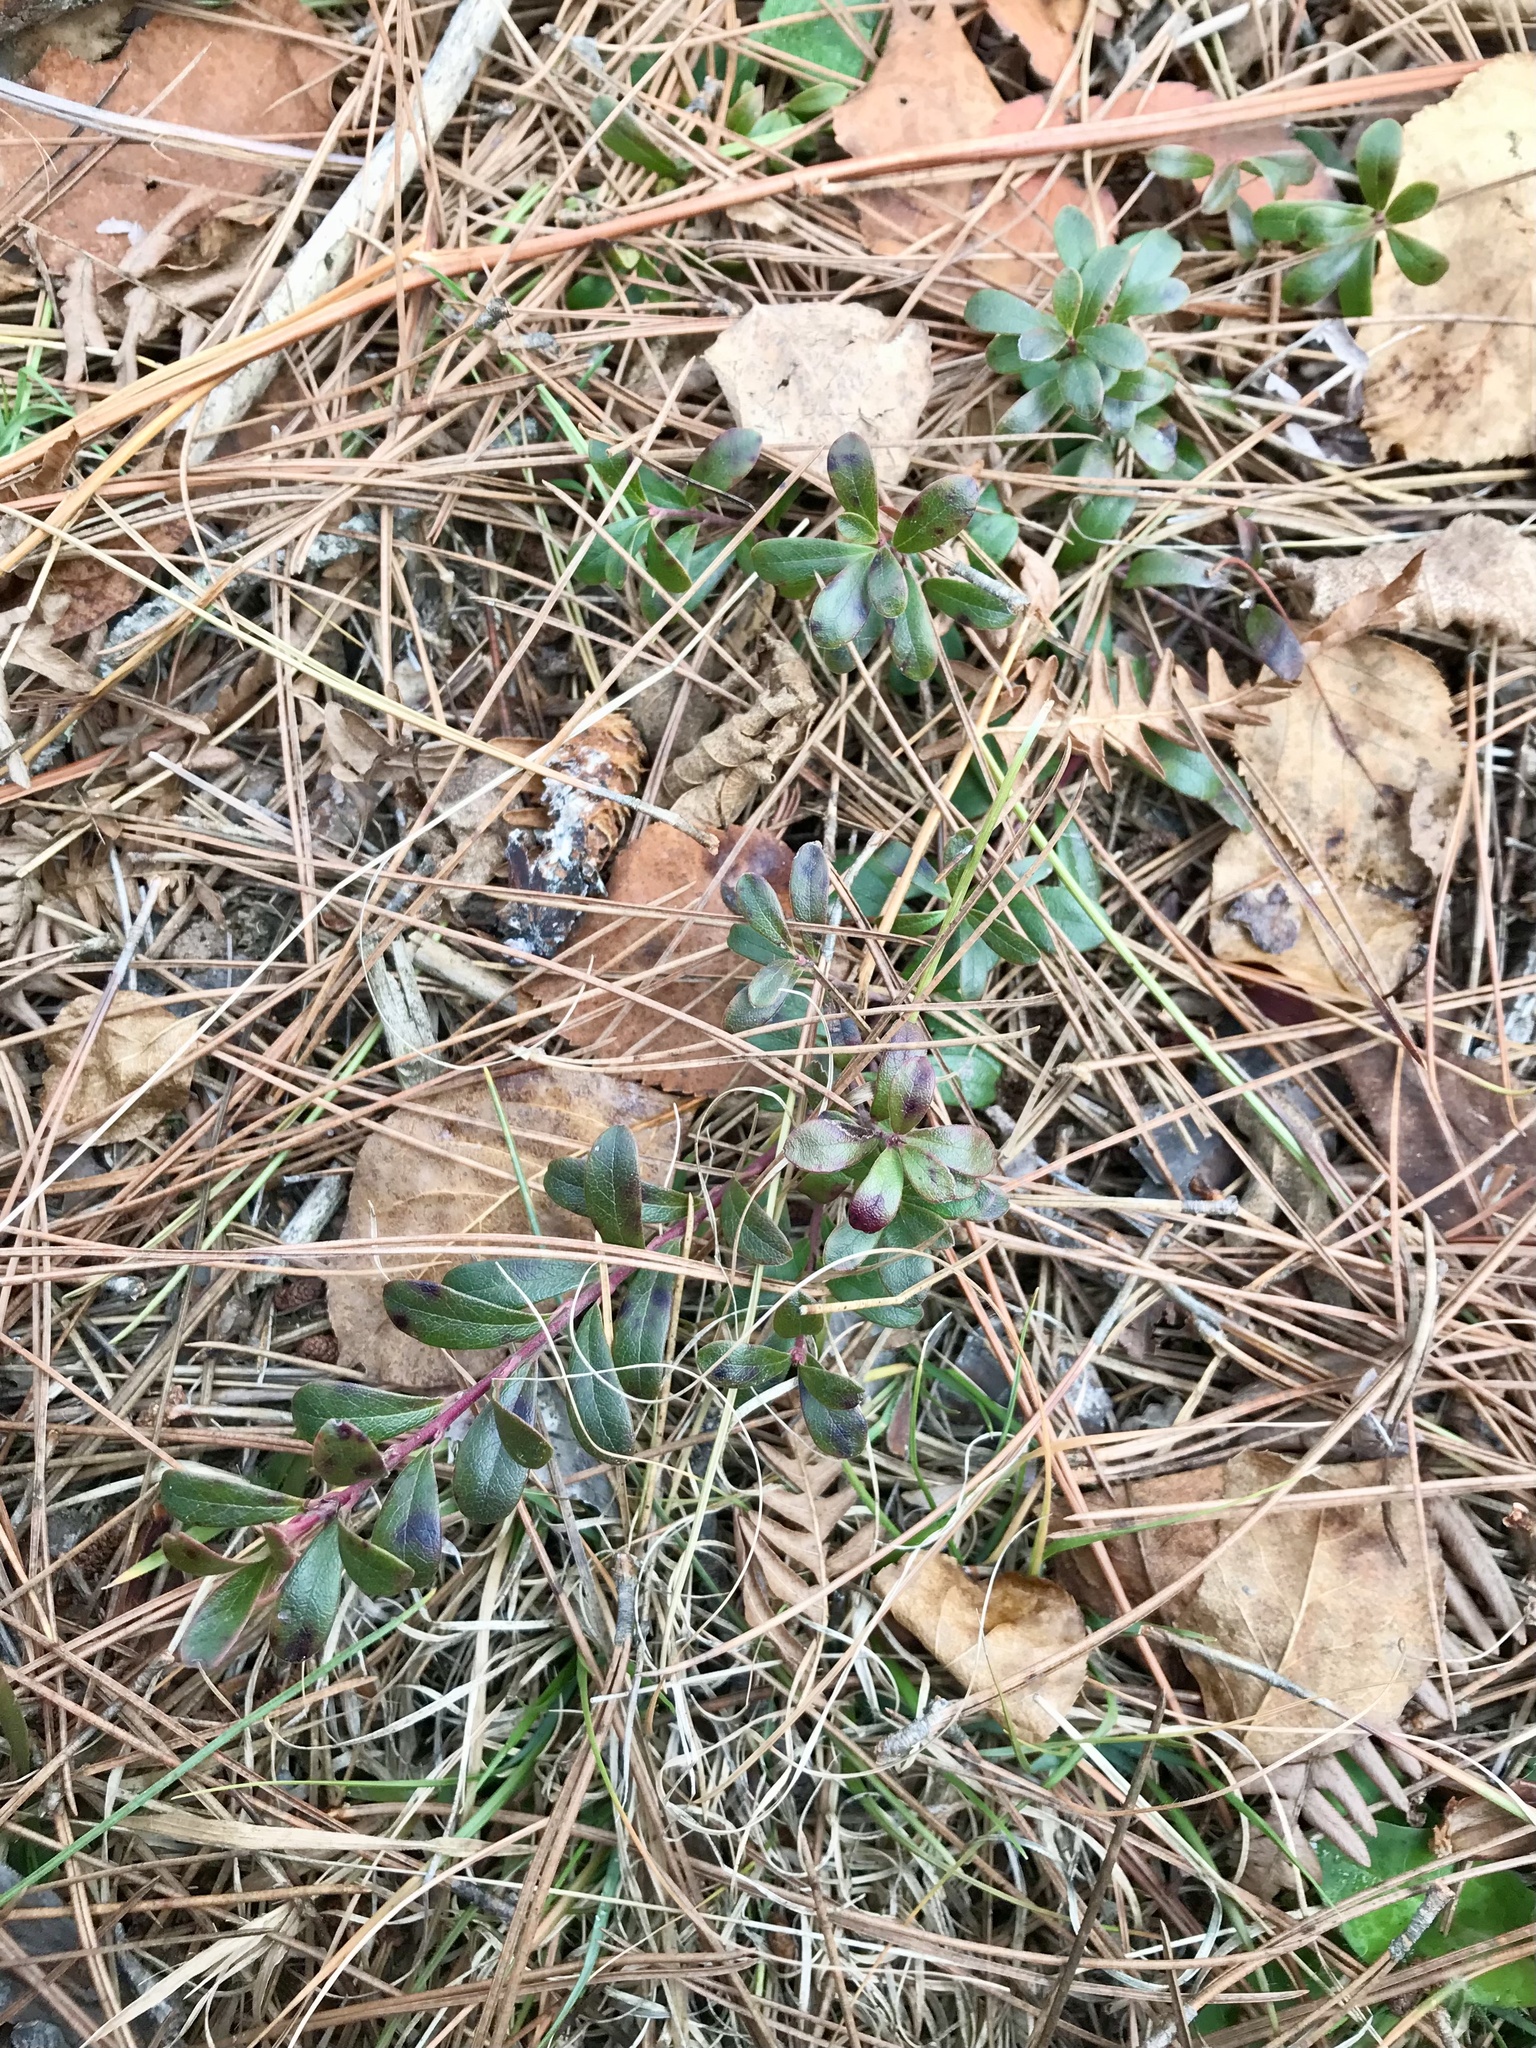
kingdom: Plantae
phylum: Tracheophyta
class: Magnoliopsida
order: Ericales
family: Ericaceae
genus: Arctostaphylos
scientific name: Arctostaphylos uva-ursi
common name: Bearberry
